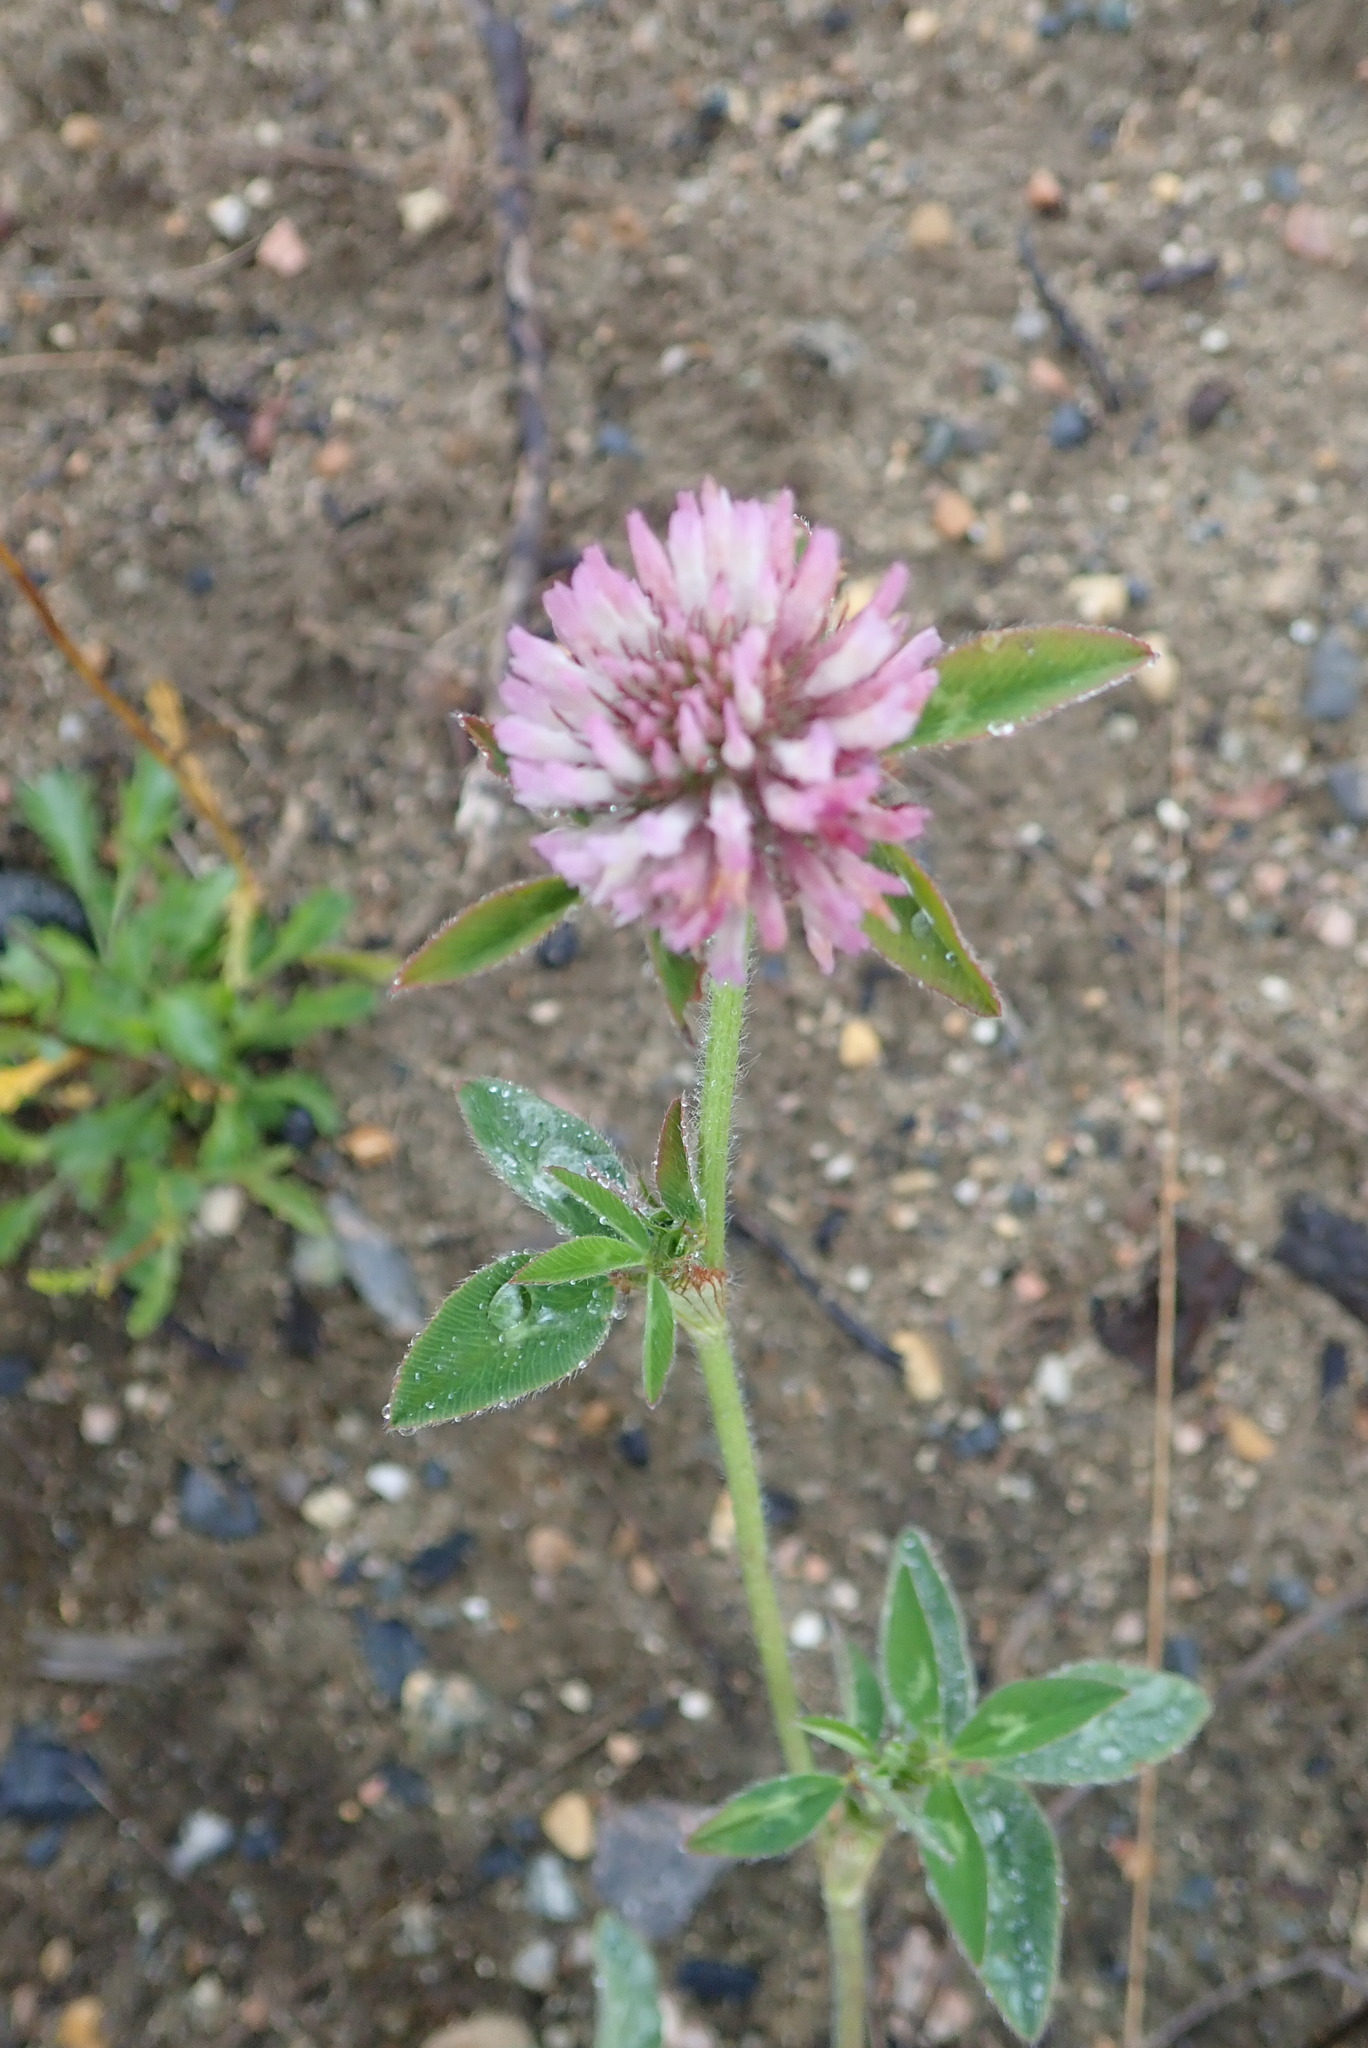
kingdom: Plantae
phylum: Tracheophyta
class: Magnoliopsida
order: Fabales
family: Fabaceae
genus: Trifolium
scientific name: Trifolium pratense
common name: Red clover
